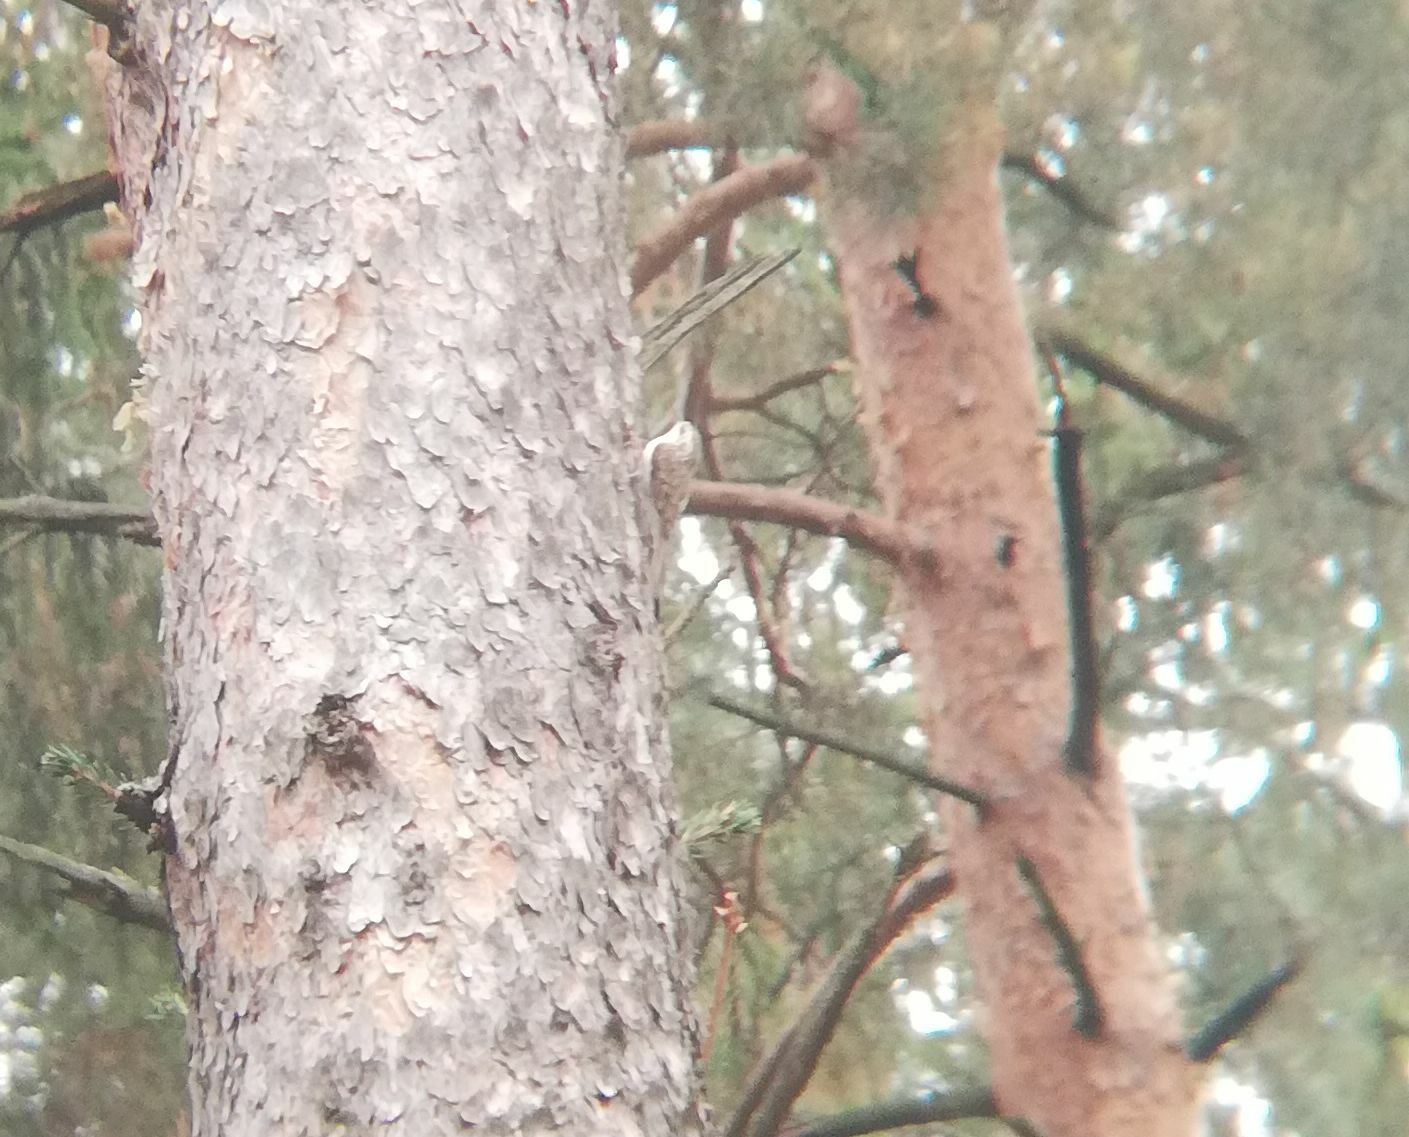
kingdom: Animalia
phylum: Chordata
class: Aves
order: Passeriformes
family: Certhiidae
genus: Certhia
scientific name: Certhia familiaris
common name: Eurasian treecreeper
